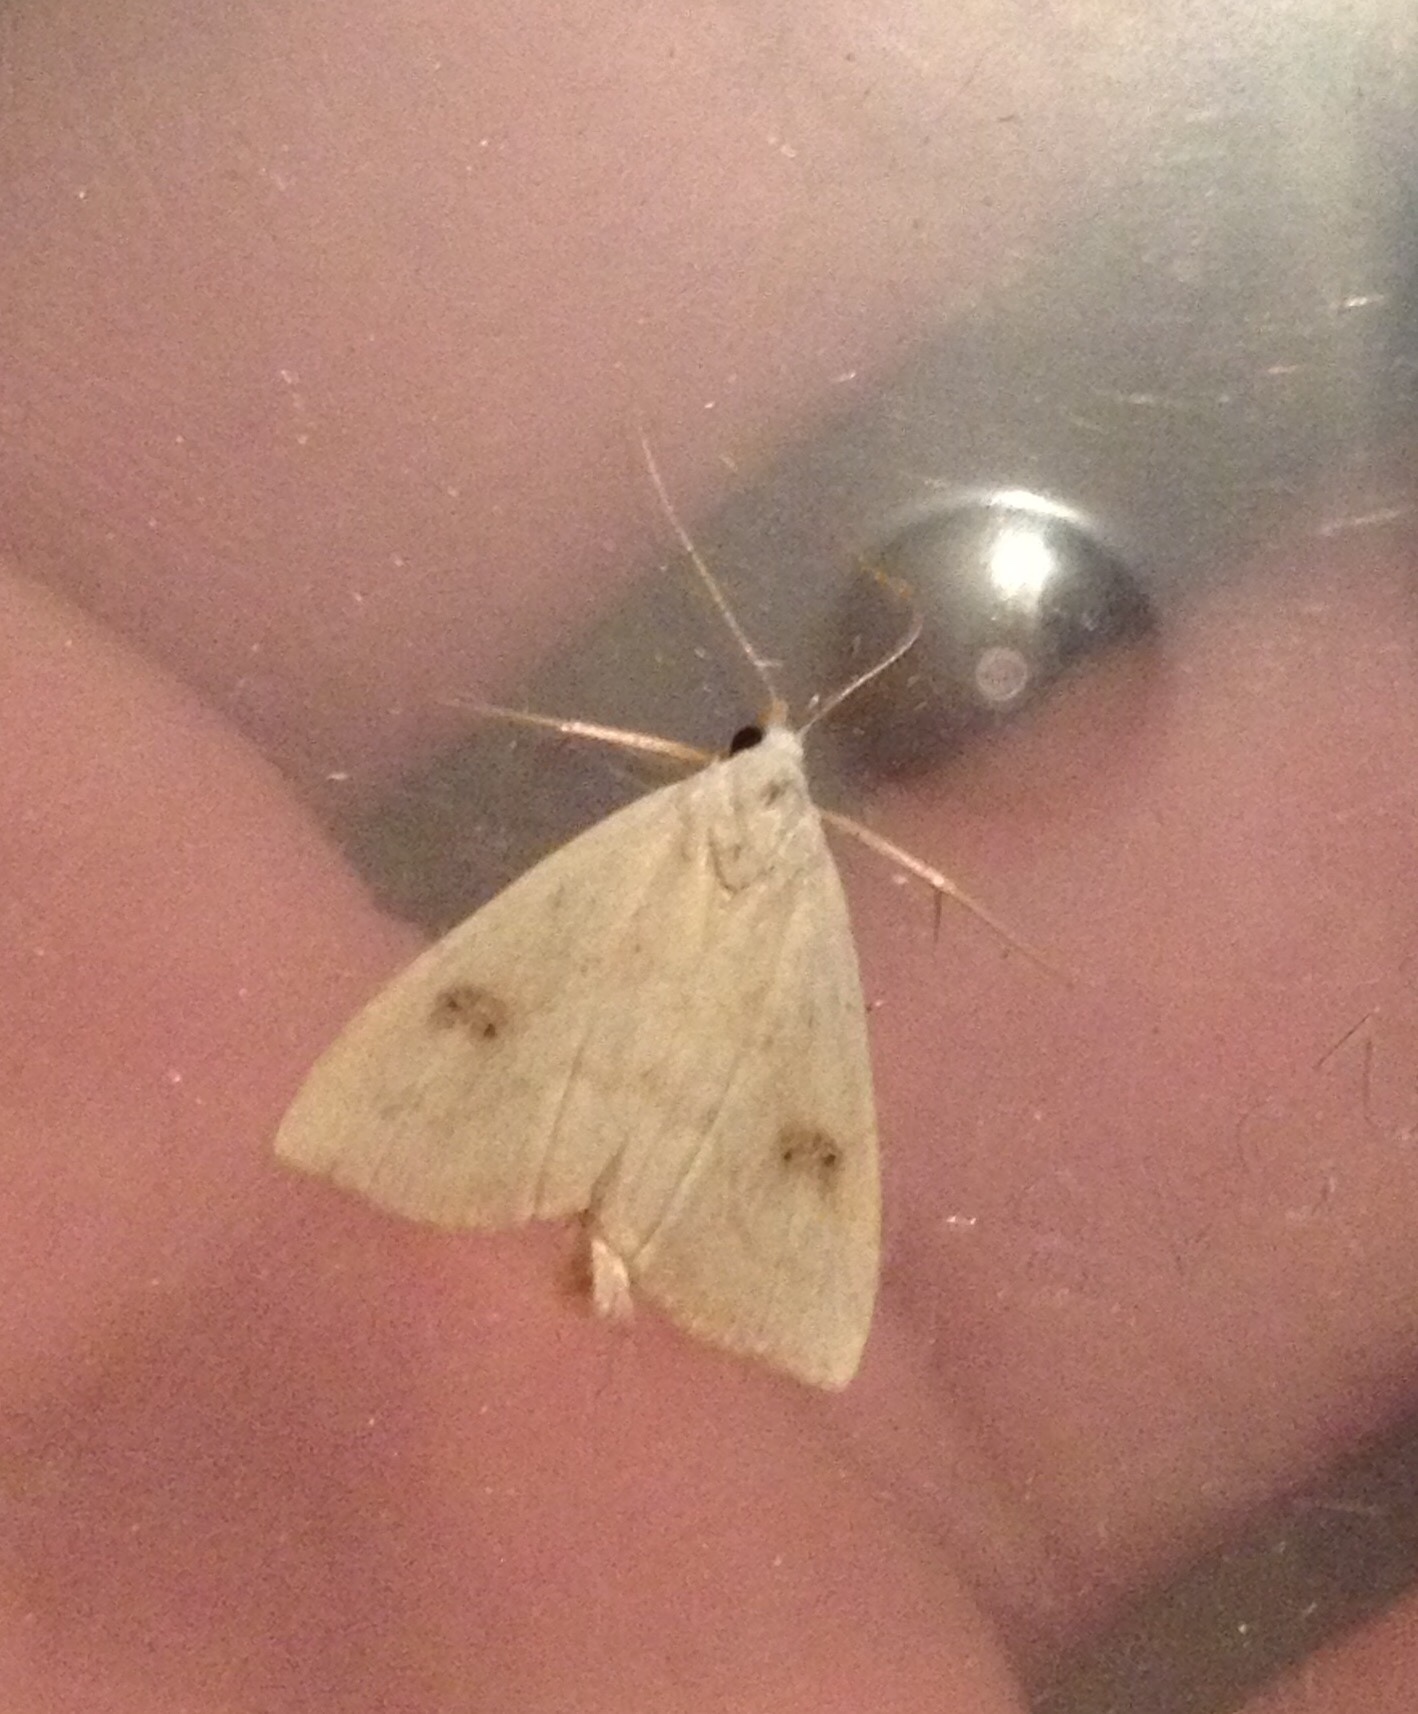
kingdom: Animalia
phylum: Arthropoda
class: Insecta
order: Lepidoptera
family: Erebidae
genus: Rivula
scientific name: Rivula sericealis
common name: Straw dot
